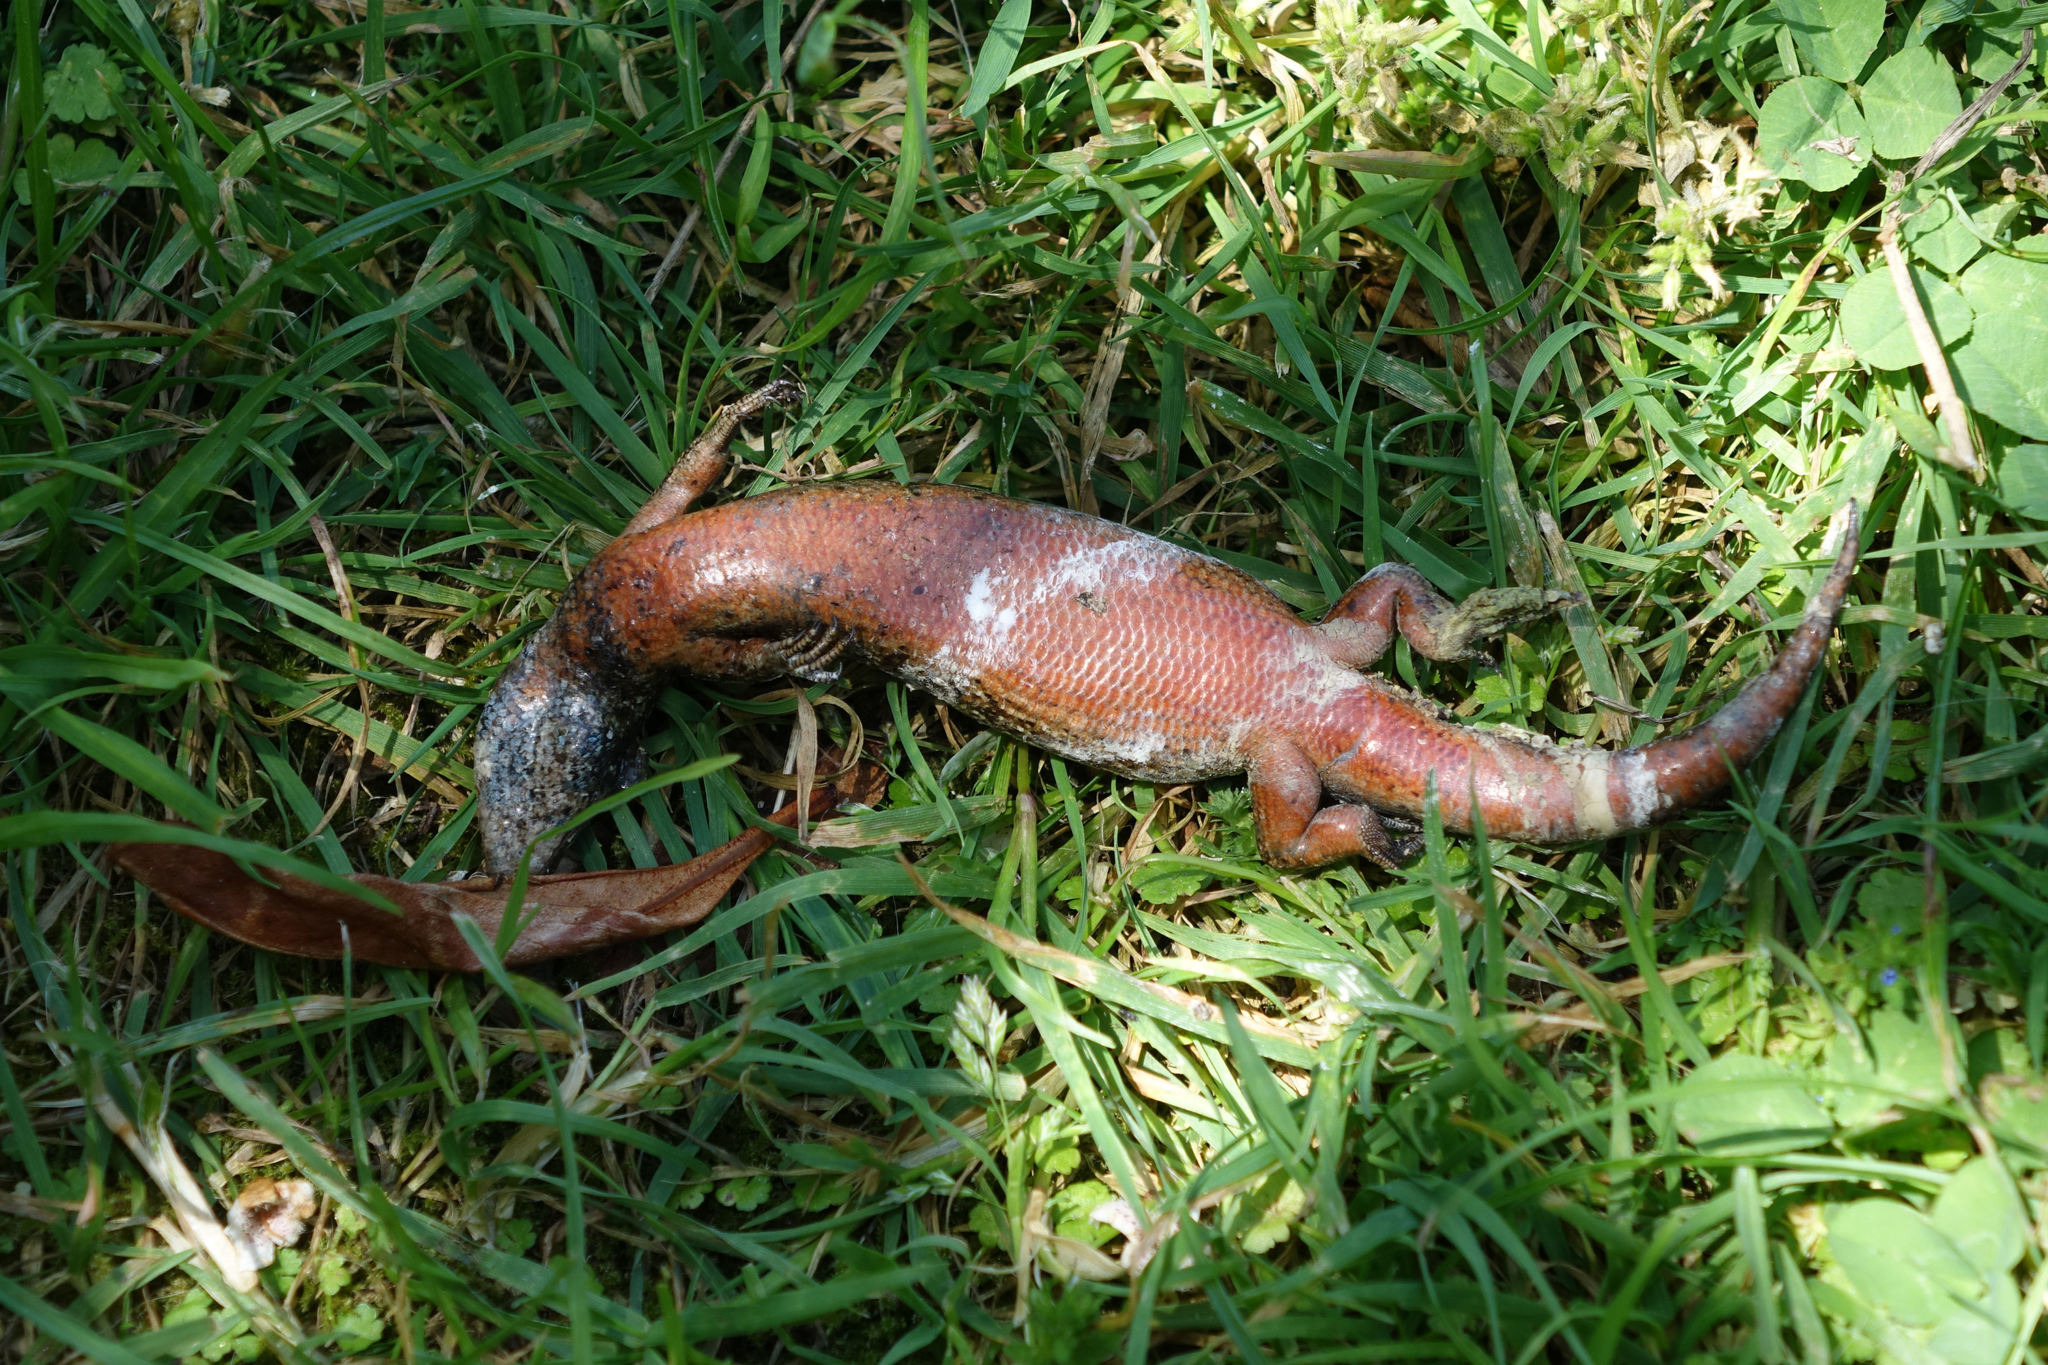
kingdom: Animalia
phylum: Chordata
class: Squamata
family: Scincidae
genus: Oligosoma
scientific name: Oligosoma kokowai
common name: Northern spotted skink
